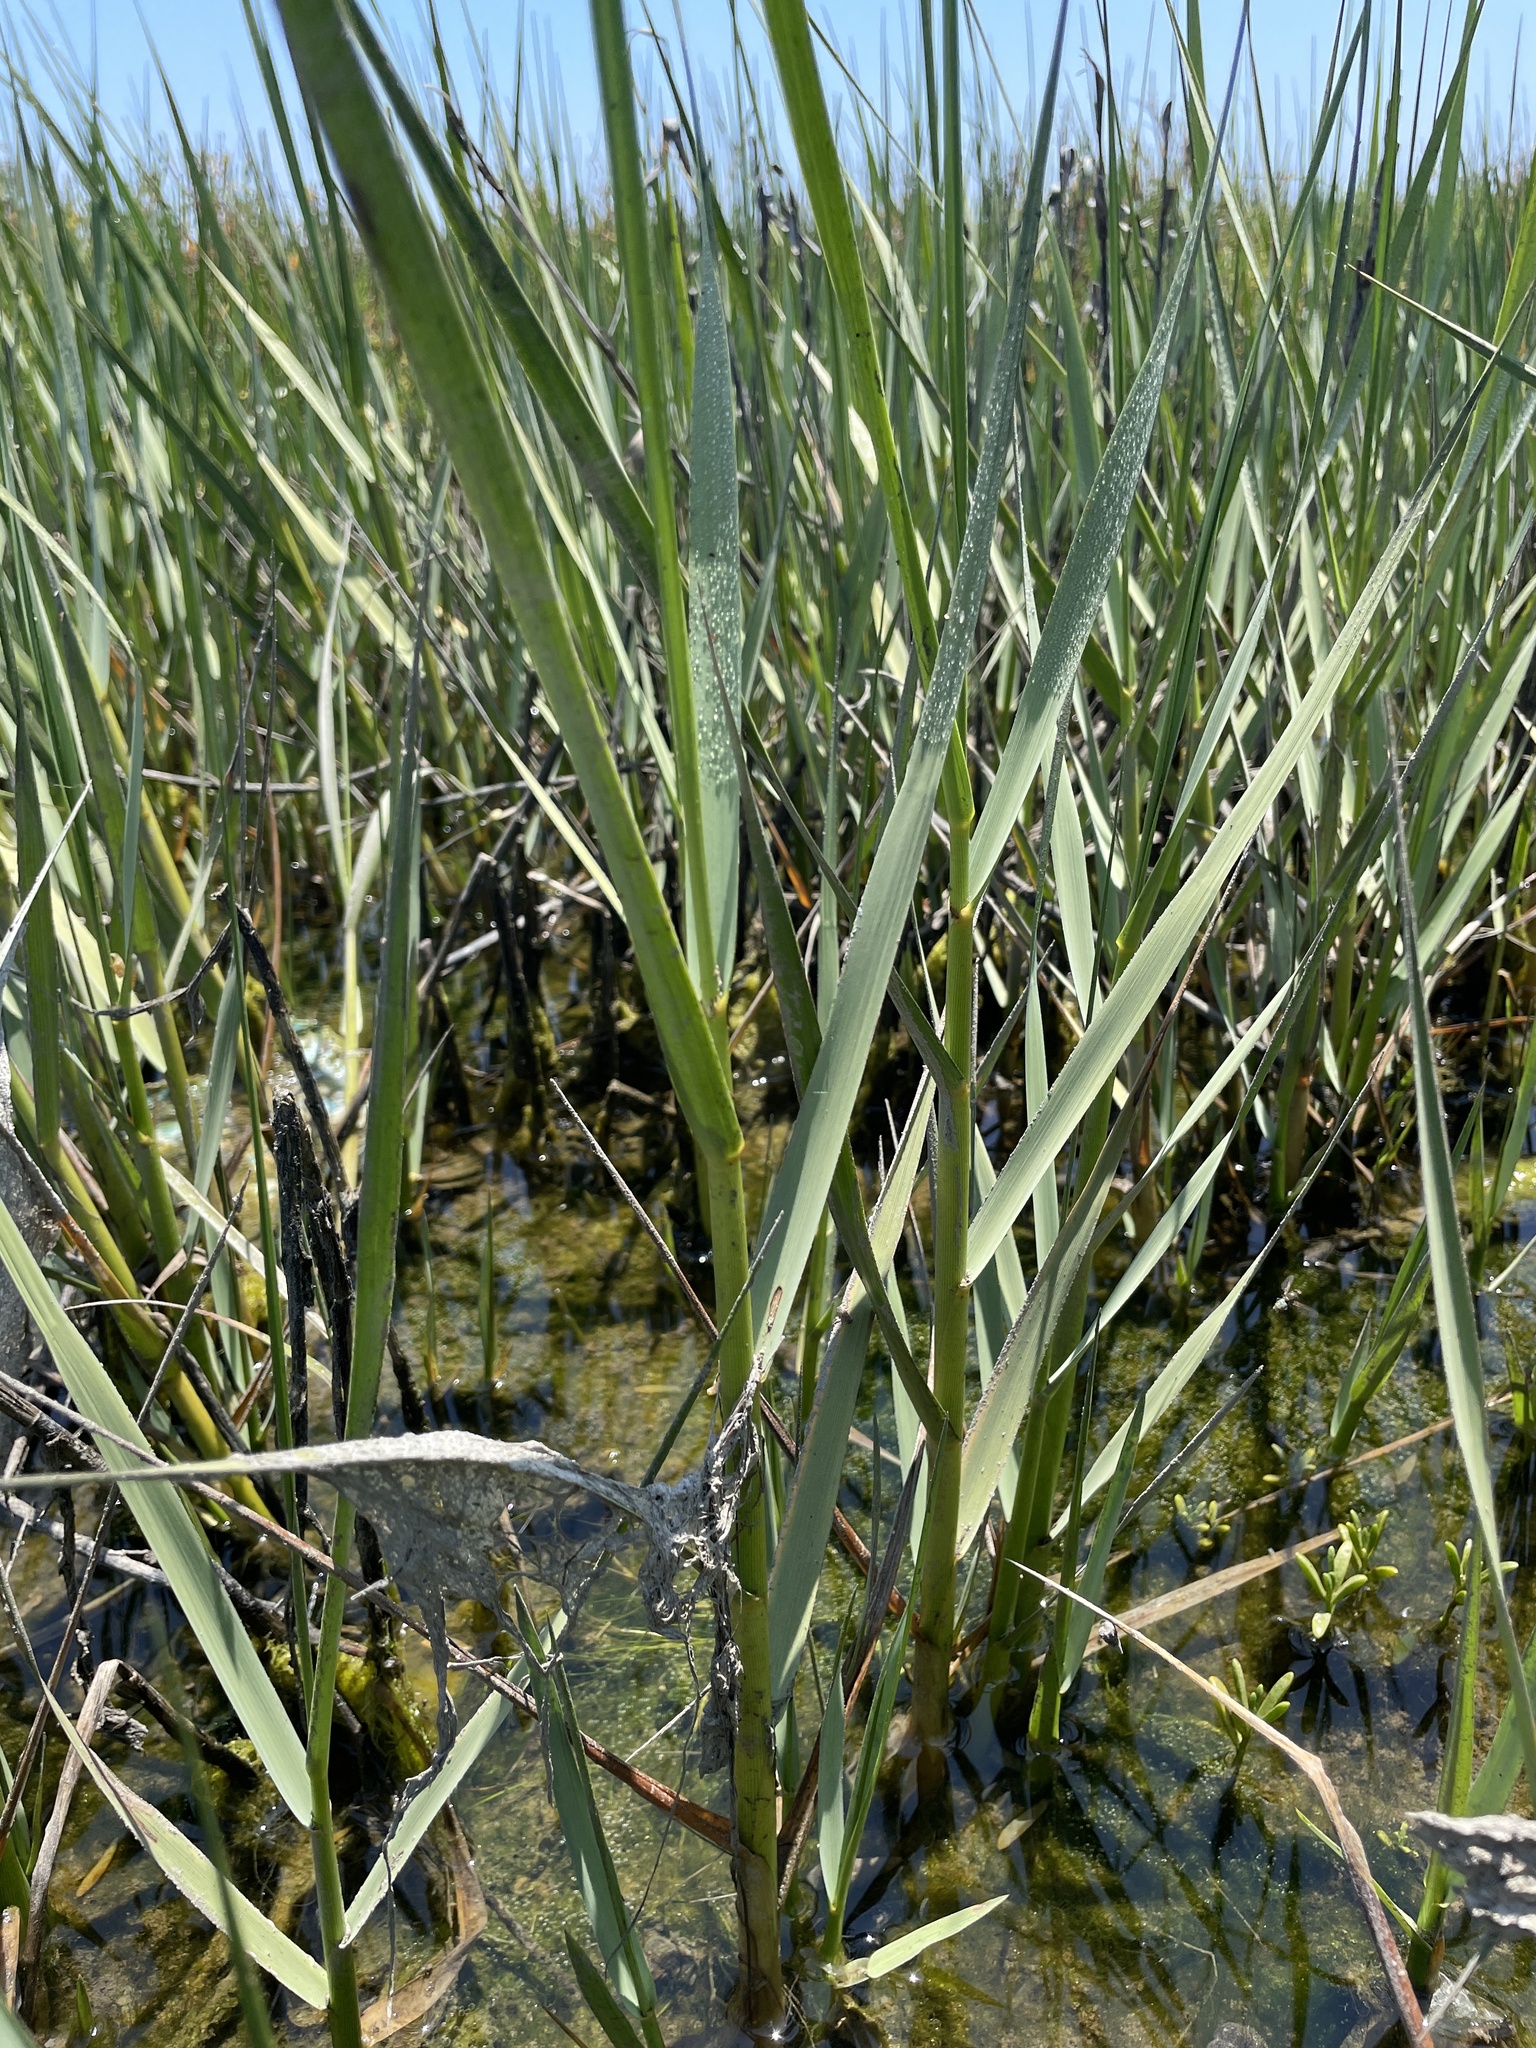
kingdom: Plantae
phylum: Tracheophyta
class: Liliopsida
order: Poales
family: Poaceae
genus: Sporobolus
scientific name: Sporobolus foliosus
